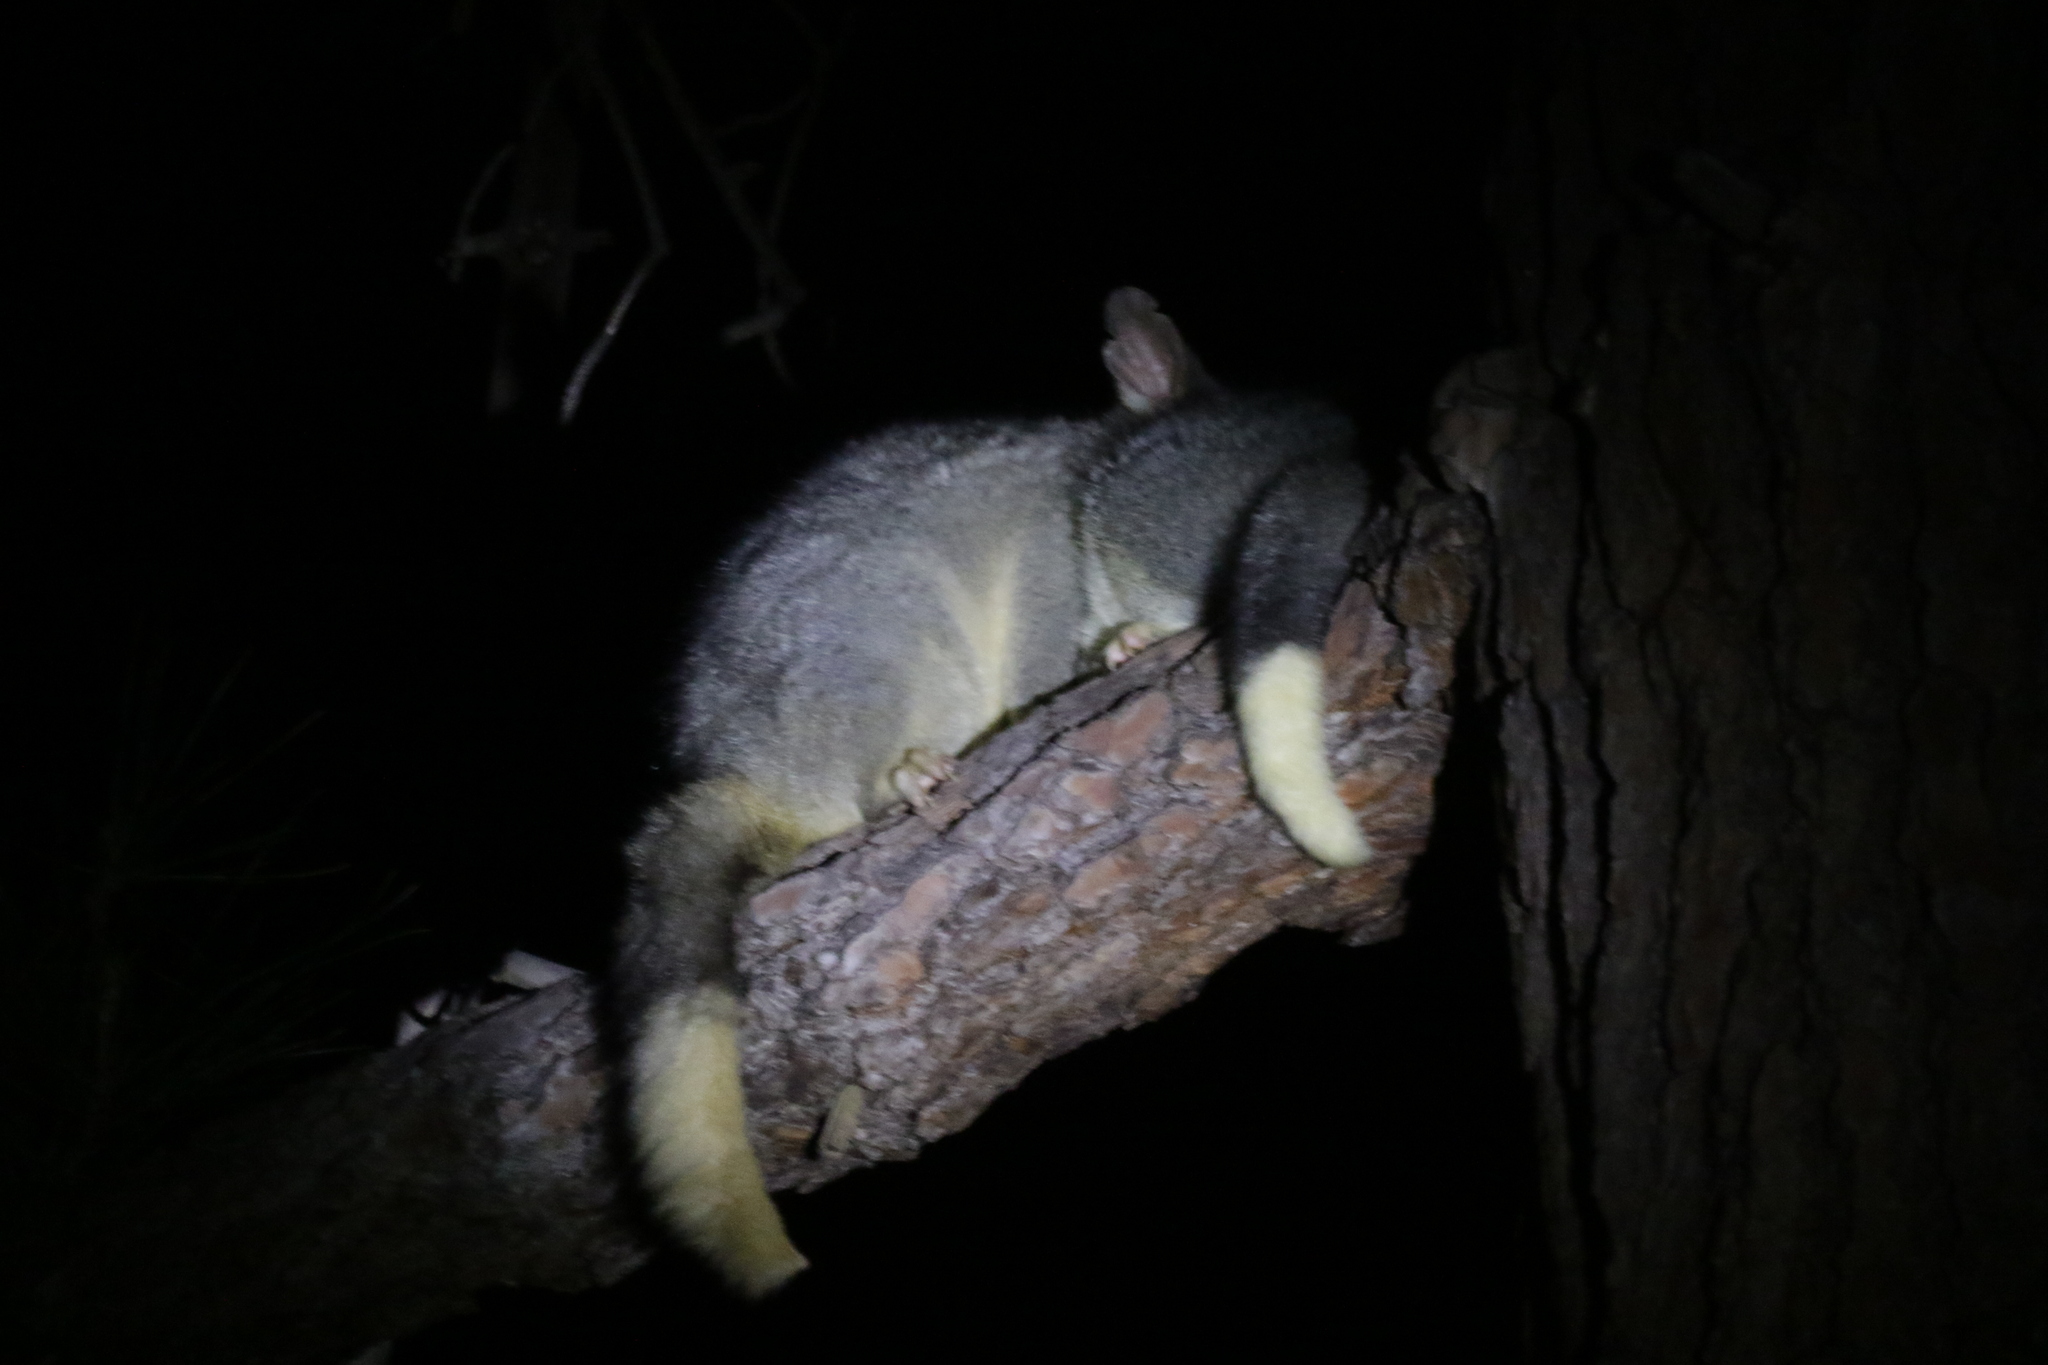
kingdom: Animalia
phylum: Chordata
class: Mammalia
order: Diprotodontia
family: Phalangeridae
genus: Trichosurus
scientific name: Trichosurus vulpecula
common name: Common brushtail
